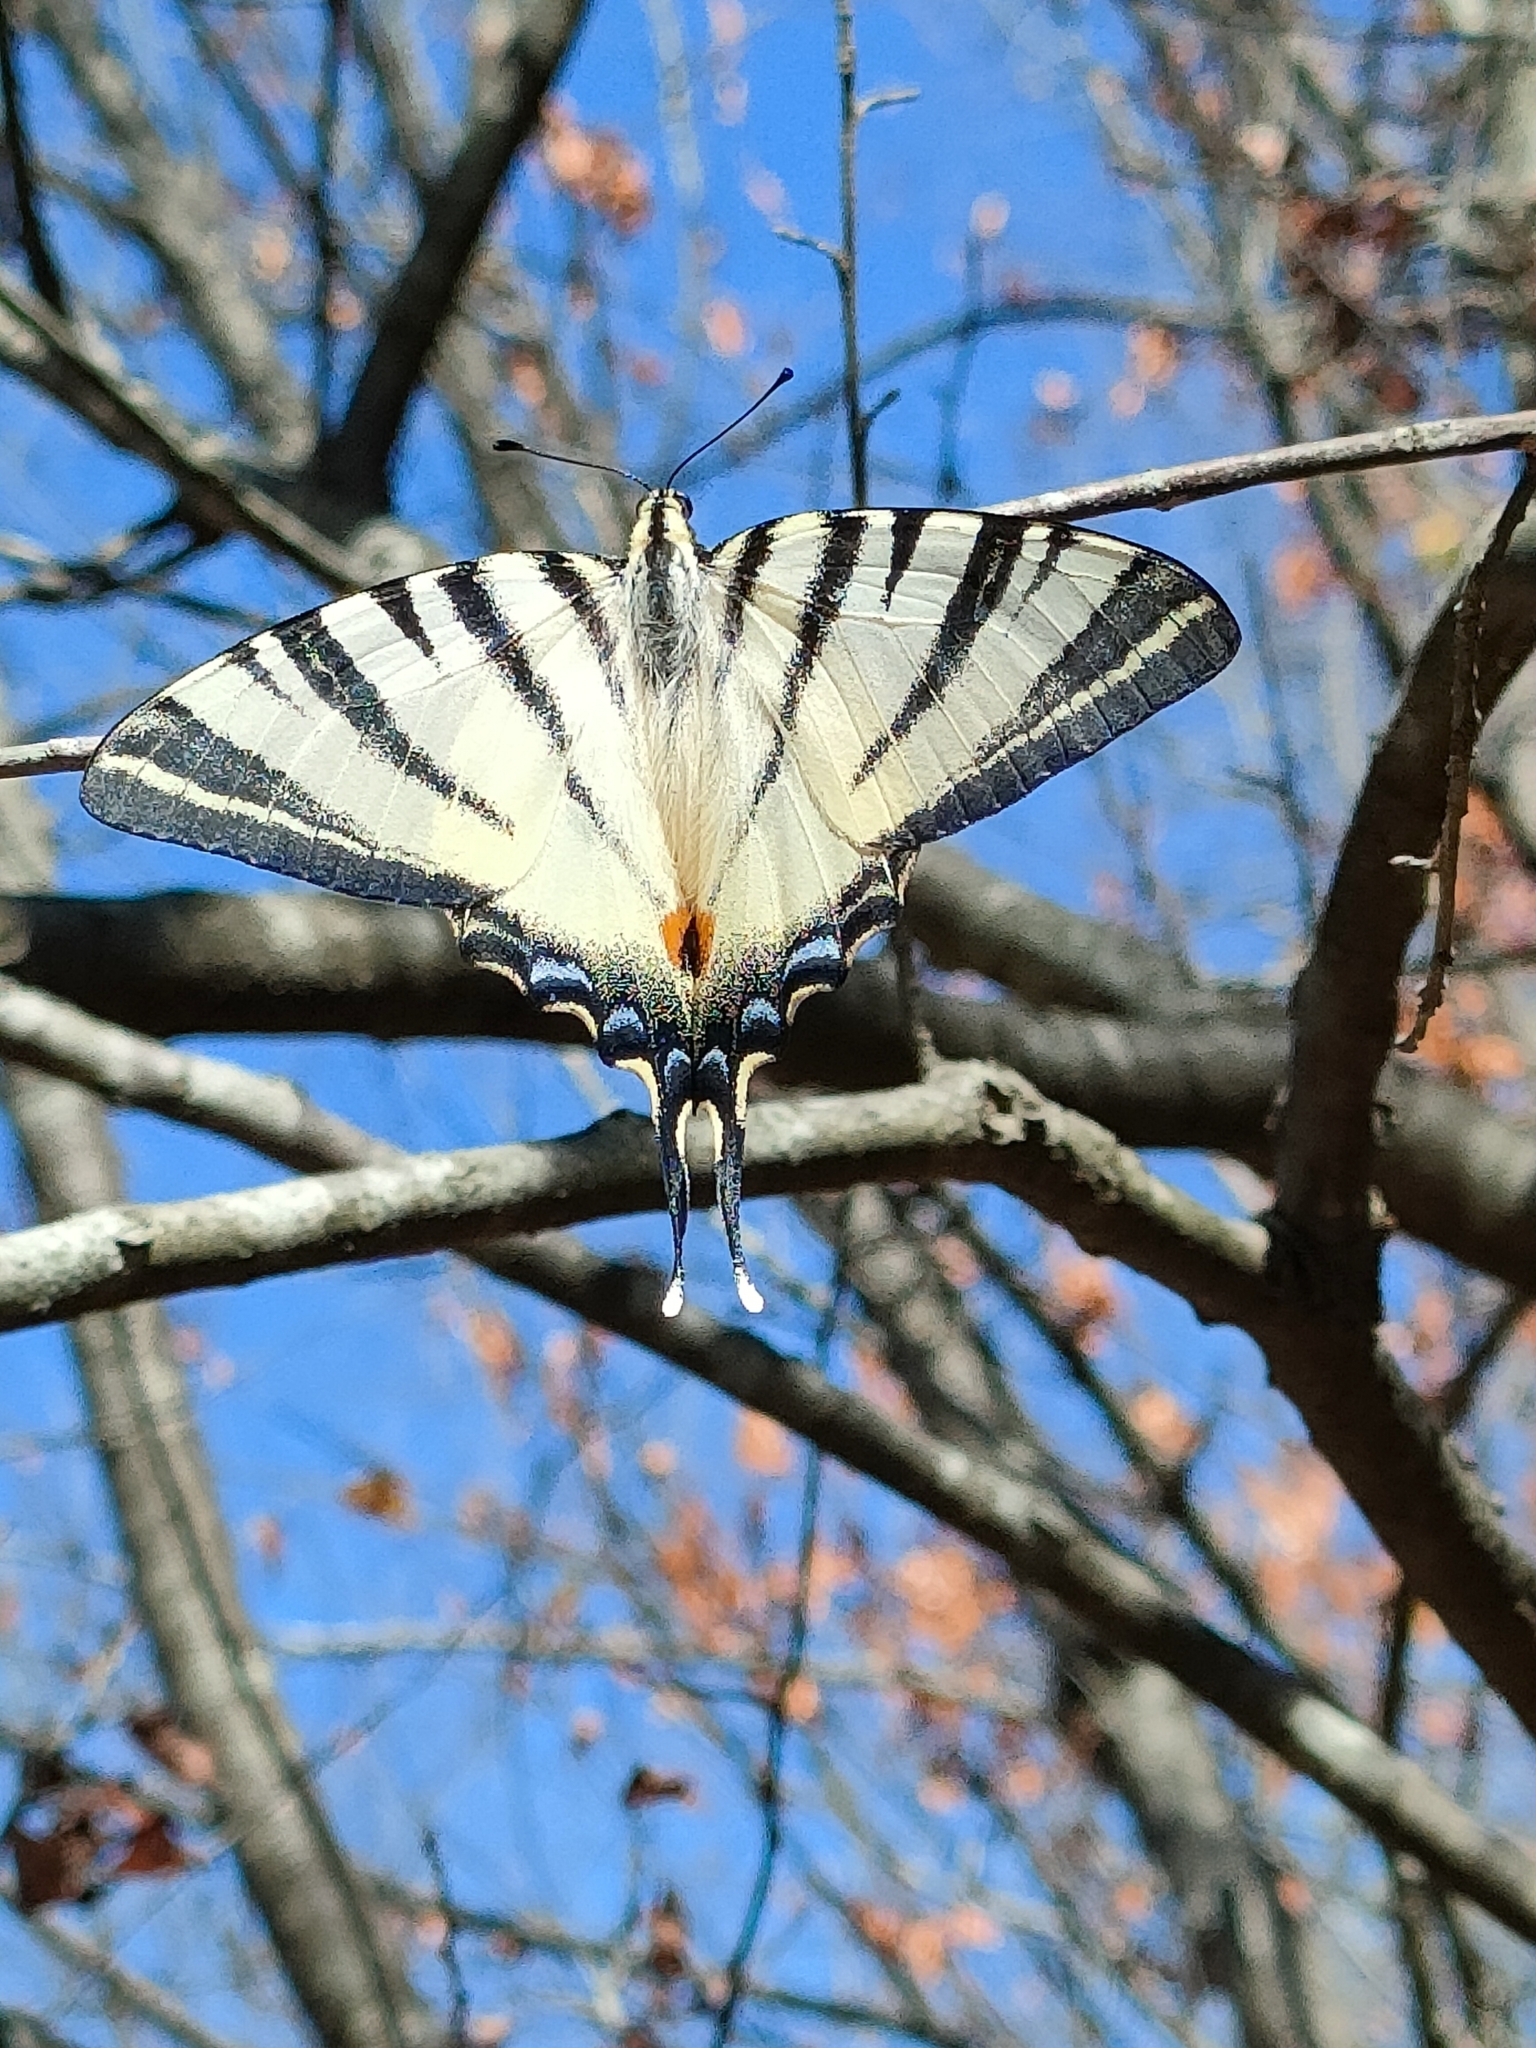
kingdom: Animalia
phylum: Arthropoda
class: Insecta
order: Lepidoptera
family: Papilionidae
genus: Iphiclides
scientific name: Iphiclides podalirius
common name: Scarce swallowtail
